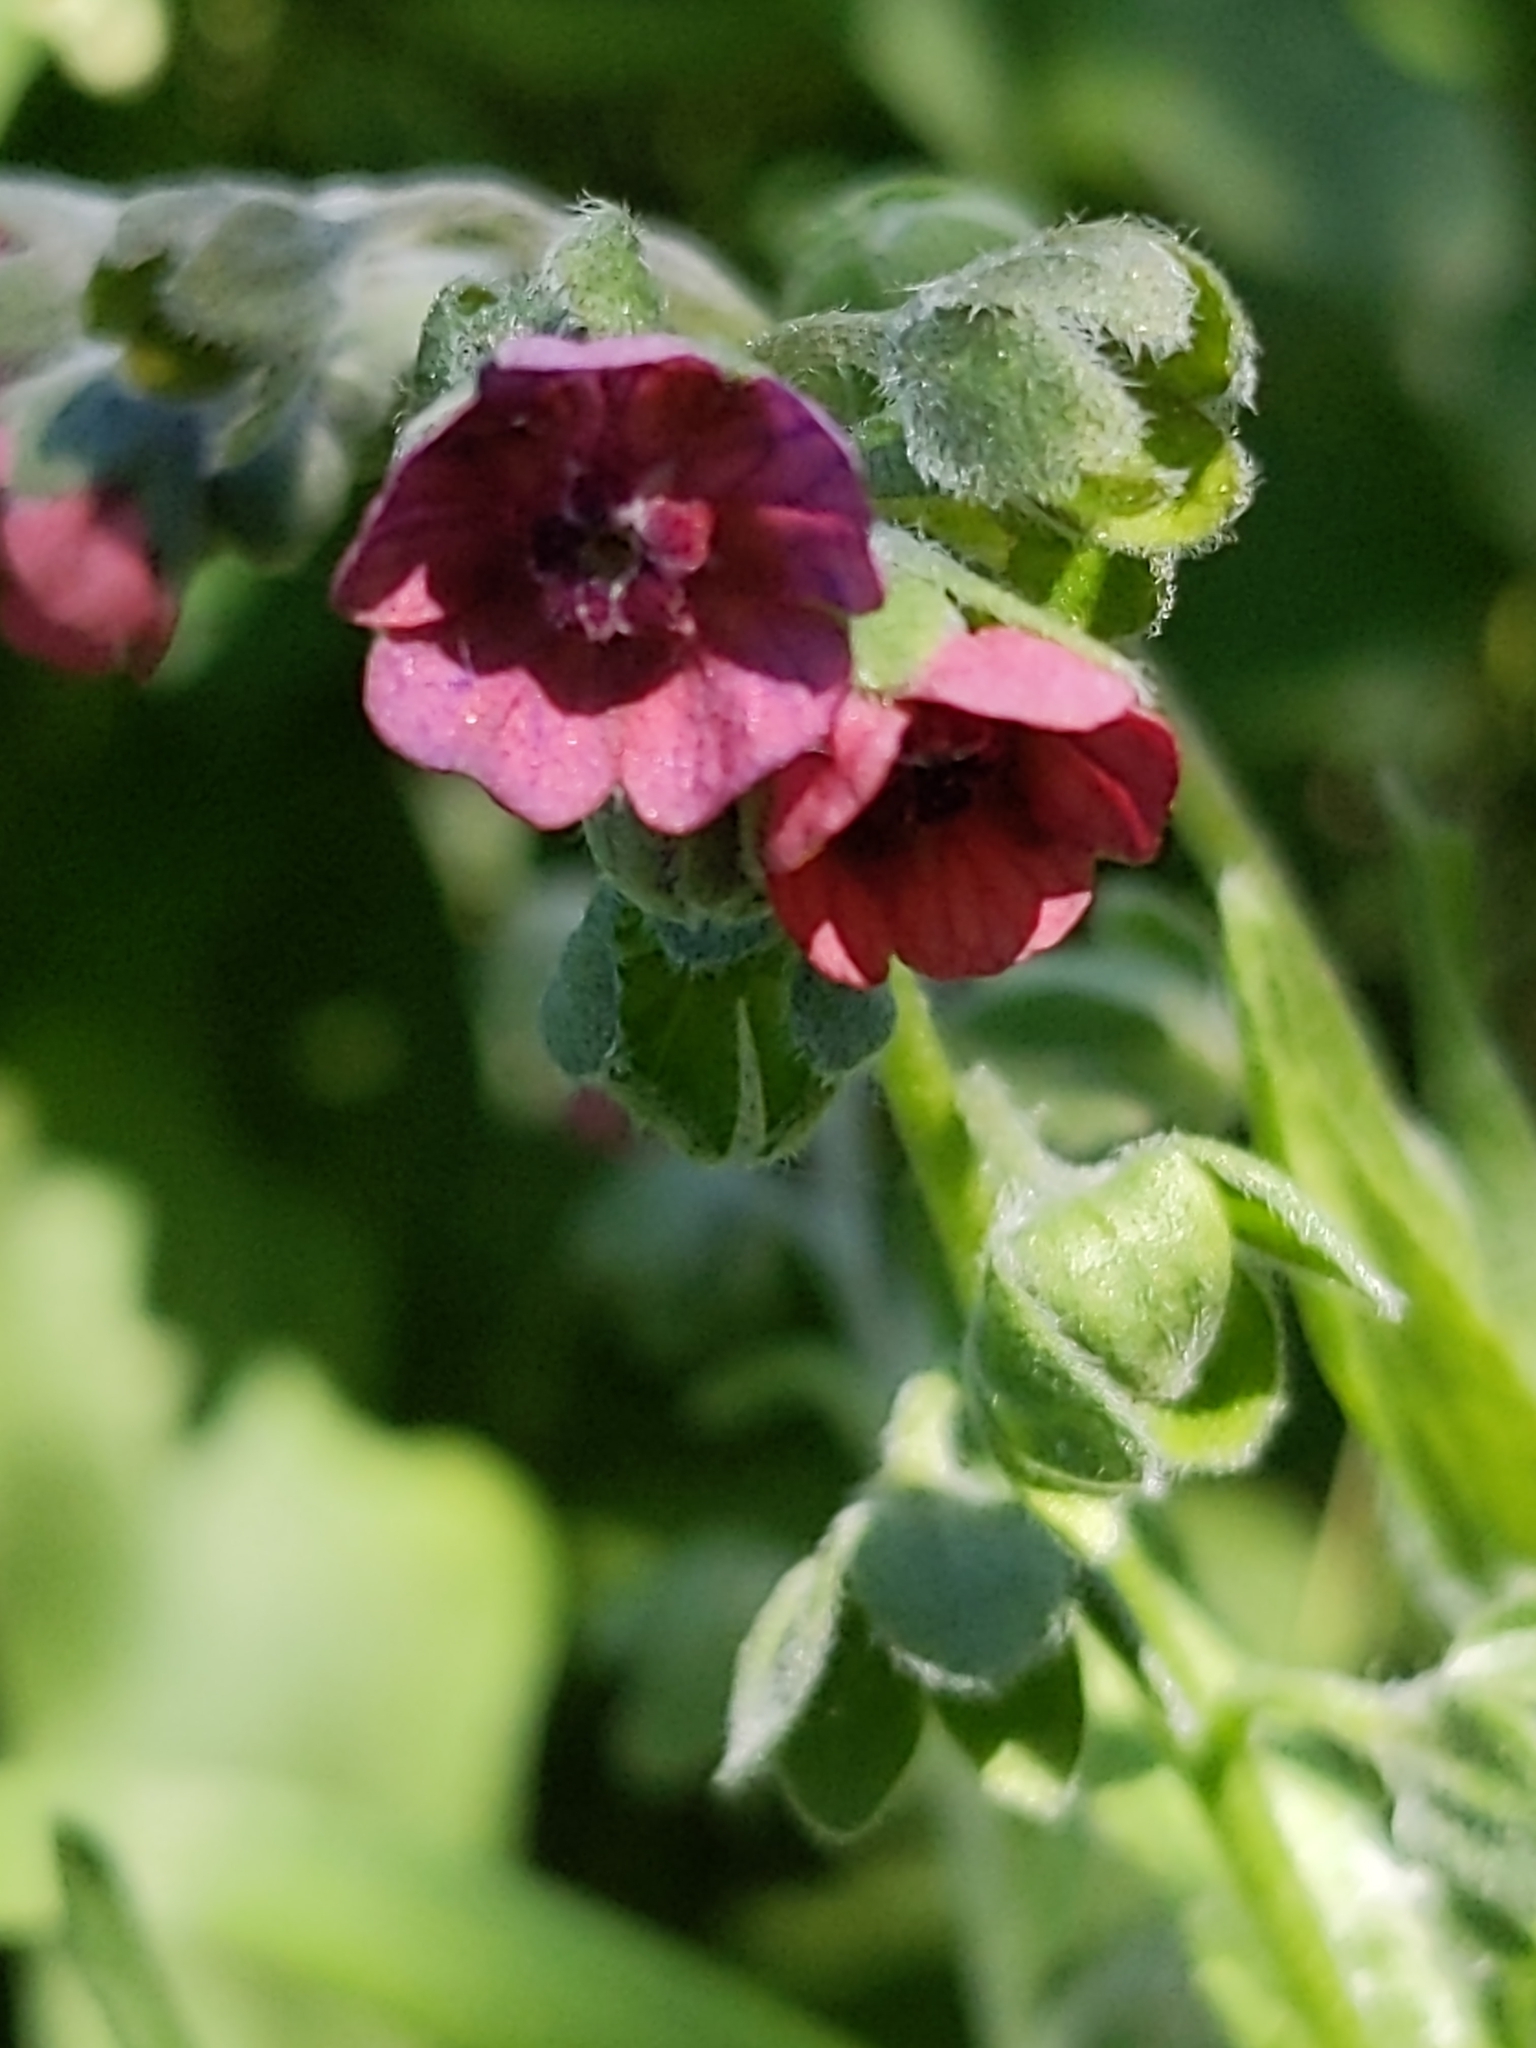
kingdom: Plantae
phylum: Tracheophyta
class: Magnoliopsida
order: Boraginales
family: Boraginaceae
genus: Cynoglossum
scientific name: Cynoglossum officinale
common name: Hound's-tongue
